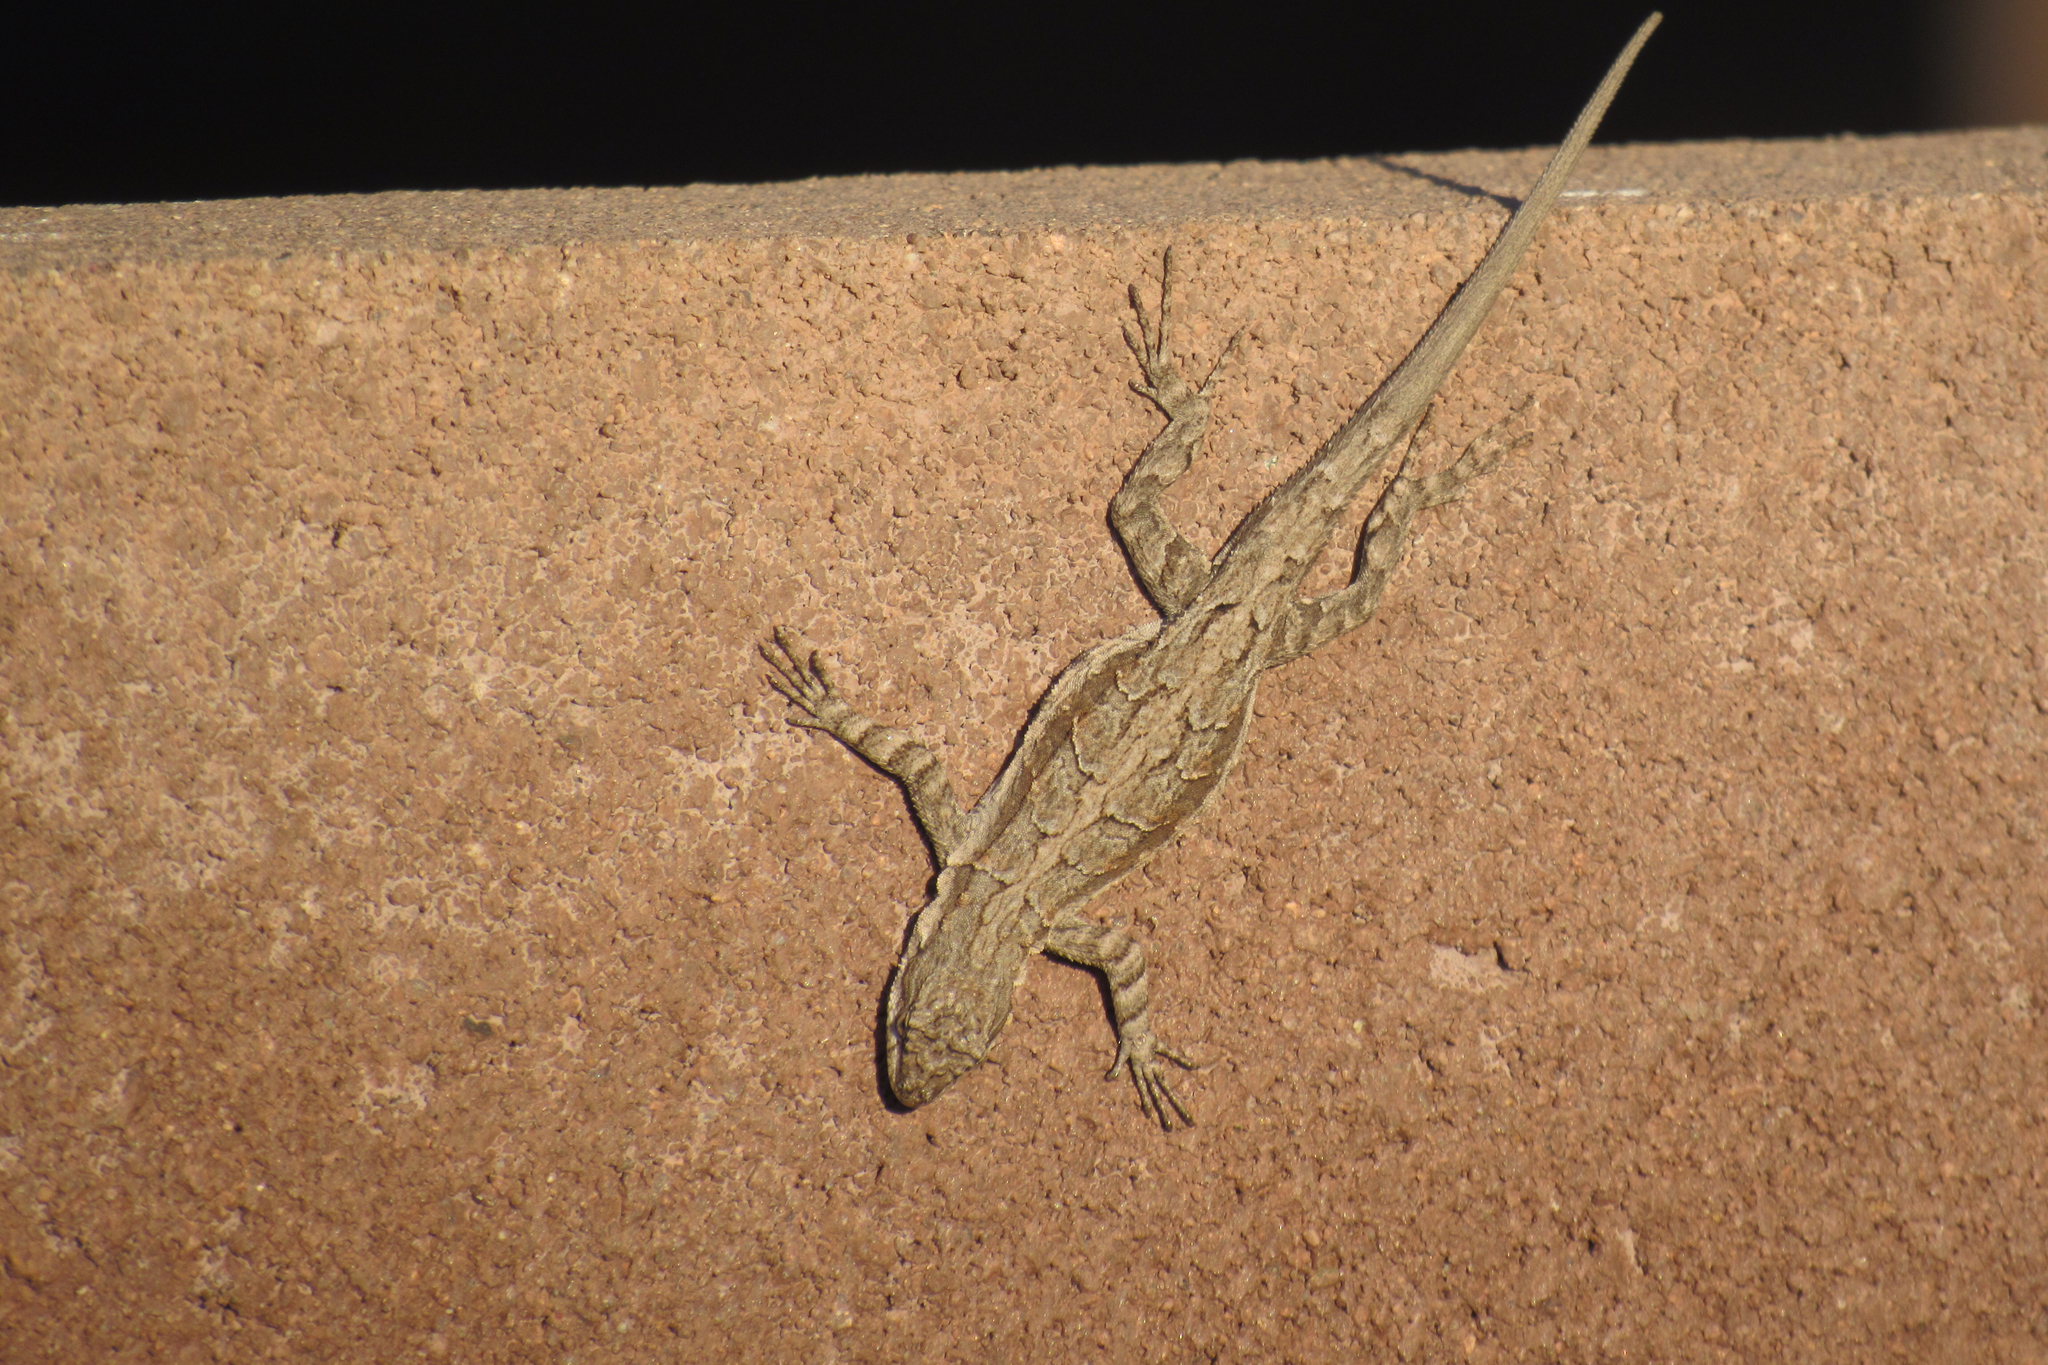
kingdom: Animalia
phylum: Chordata
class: Squamata
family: Phrynosomatidae
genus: Urosaurus
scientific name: Urosaurus ornatus
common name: Ornate tree lizard
